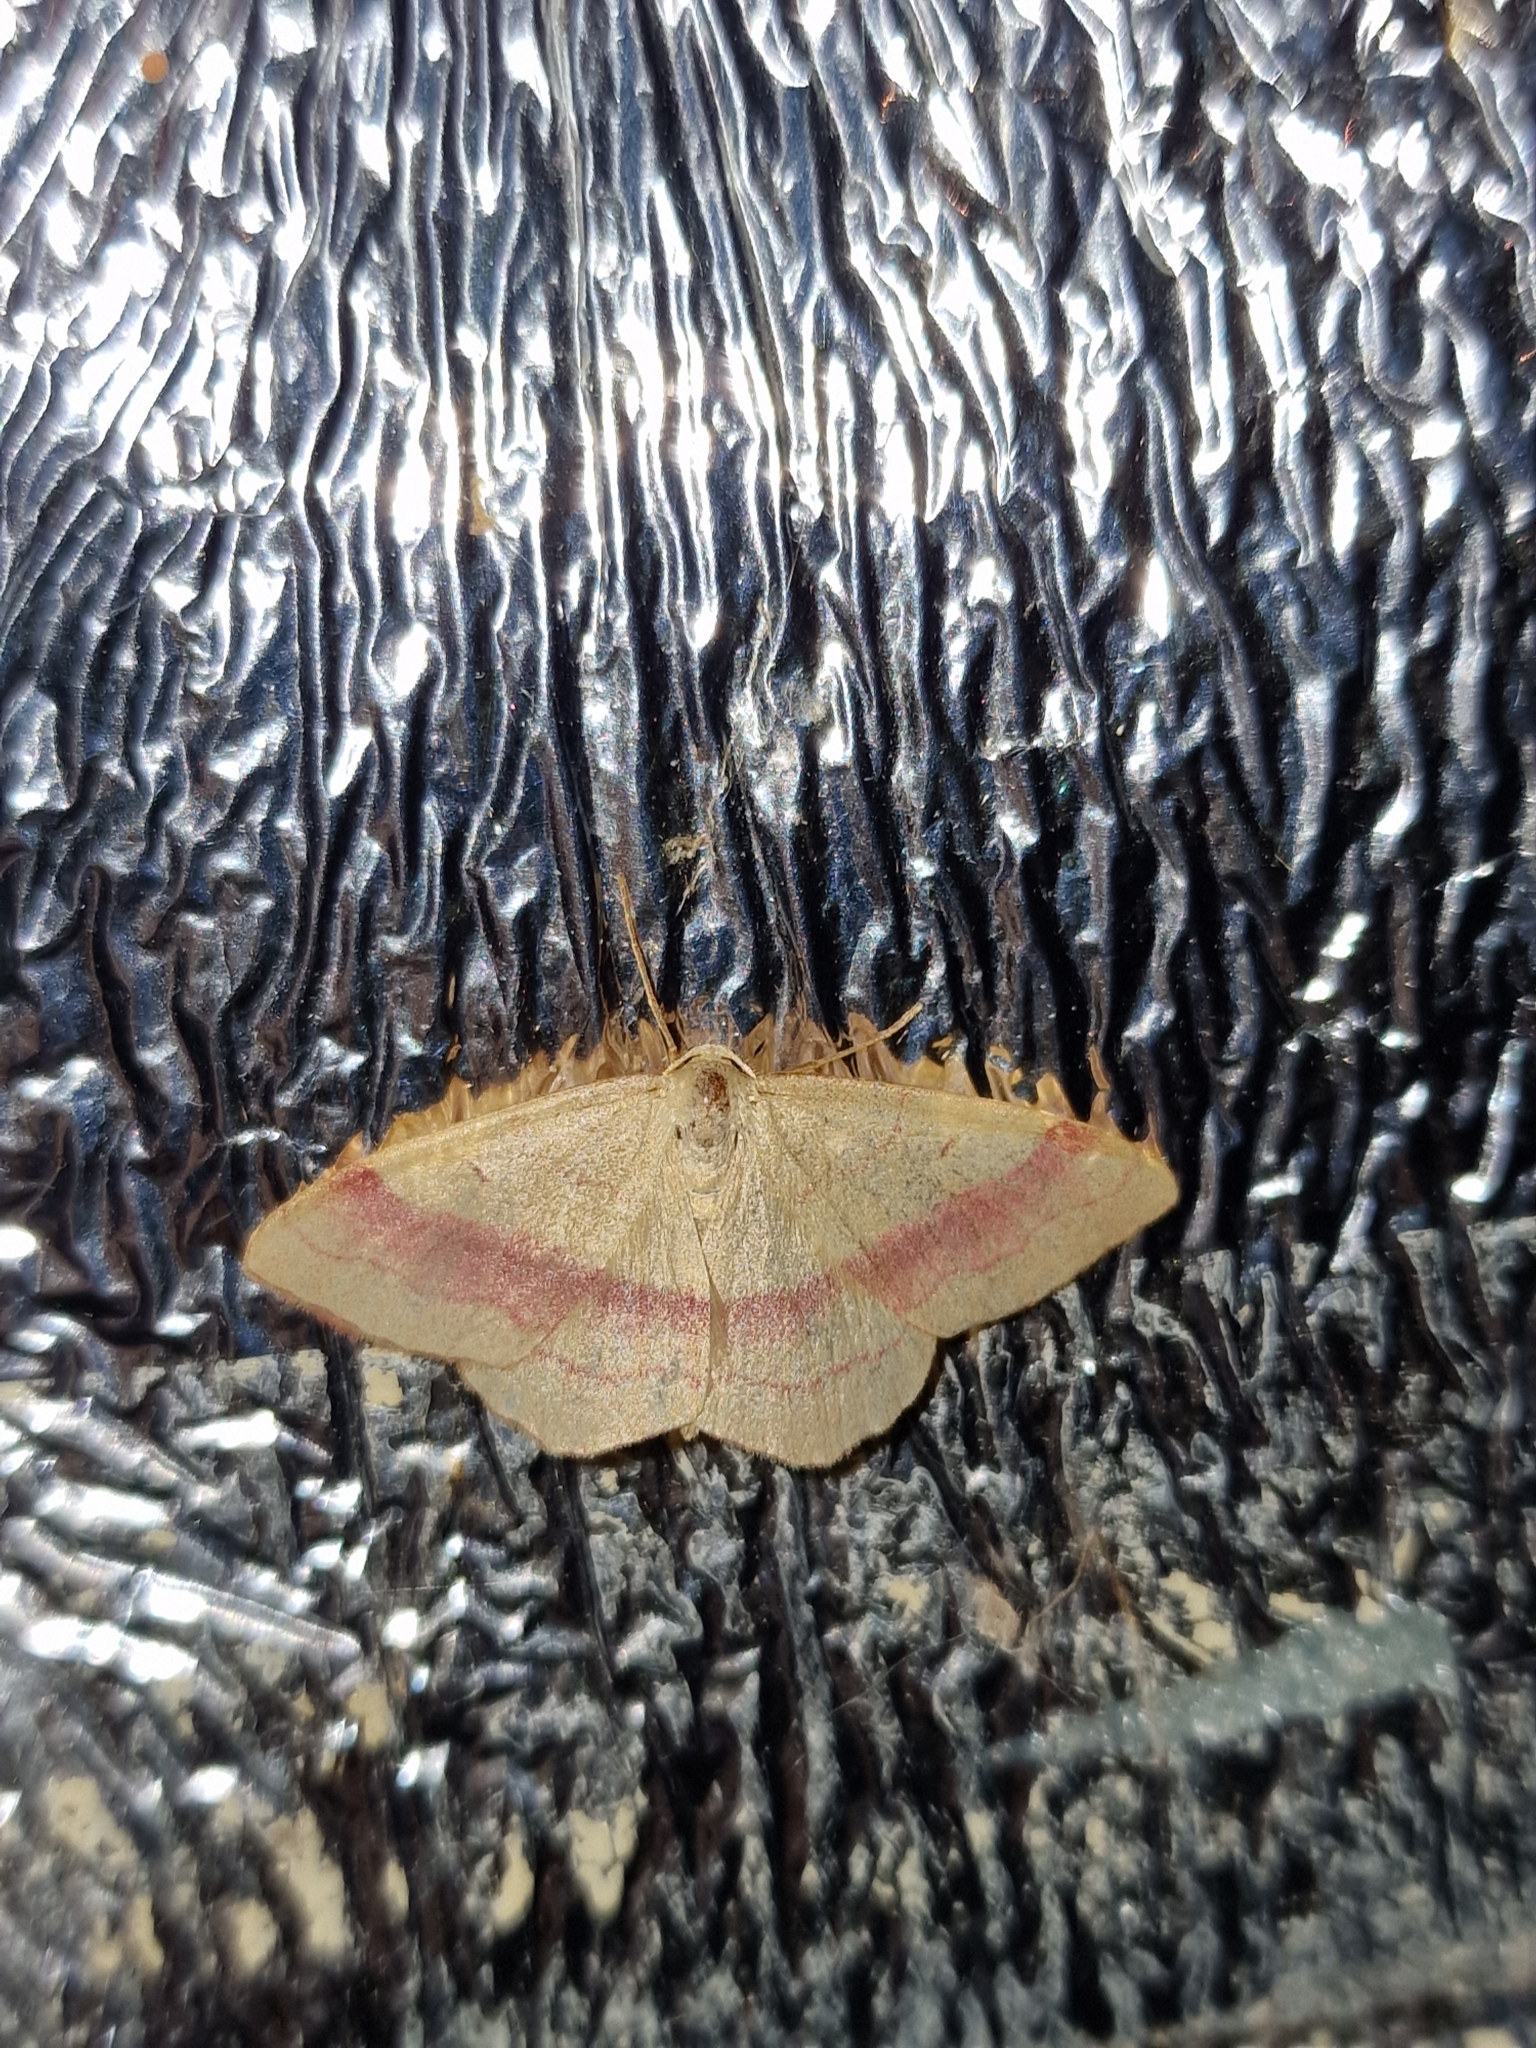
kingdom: Animalia
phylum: Arthropoda
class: Insecta
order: Lepidoptera
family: Geometridae
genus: Rhodostrophia
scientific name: Rhodostrophia vibicaria
